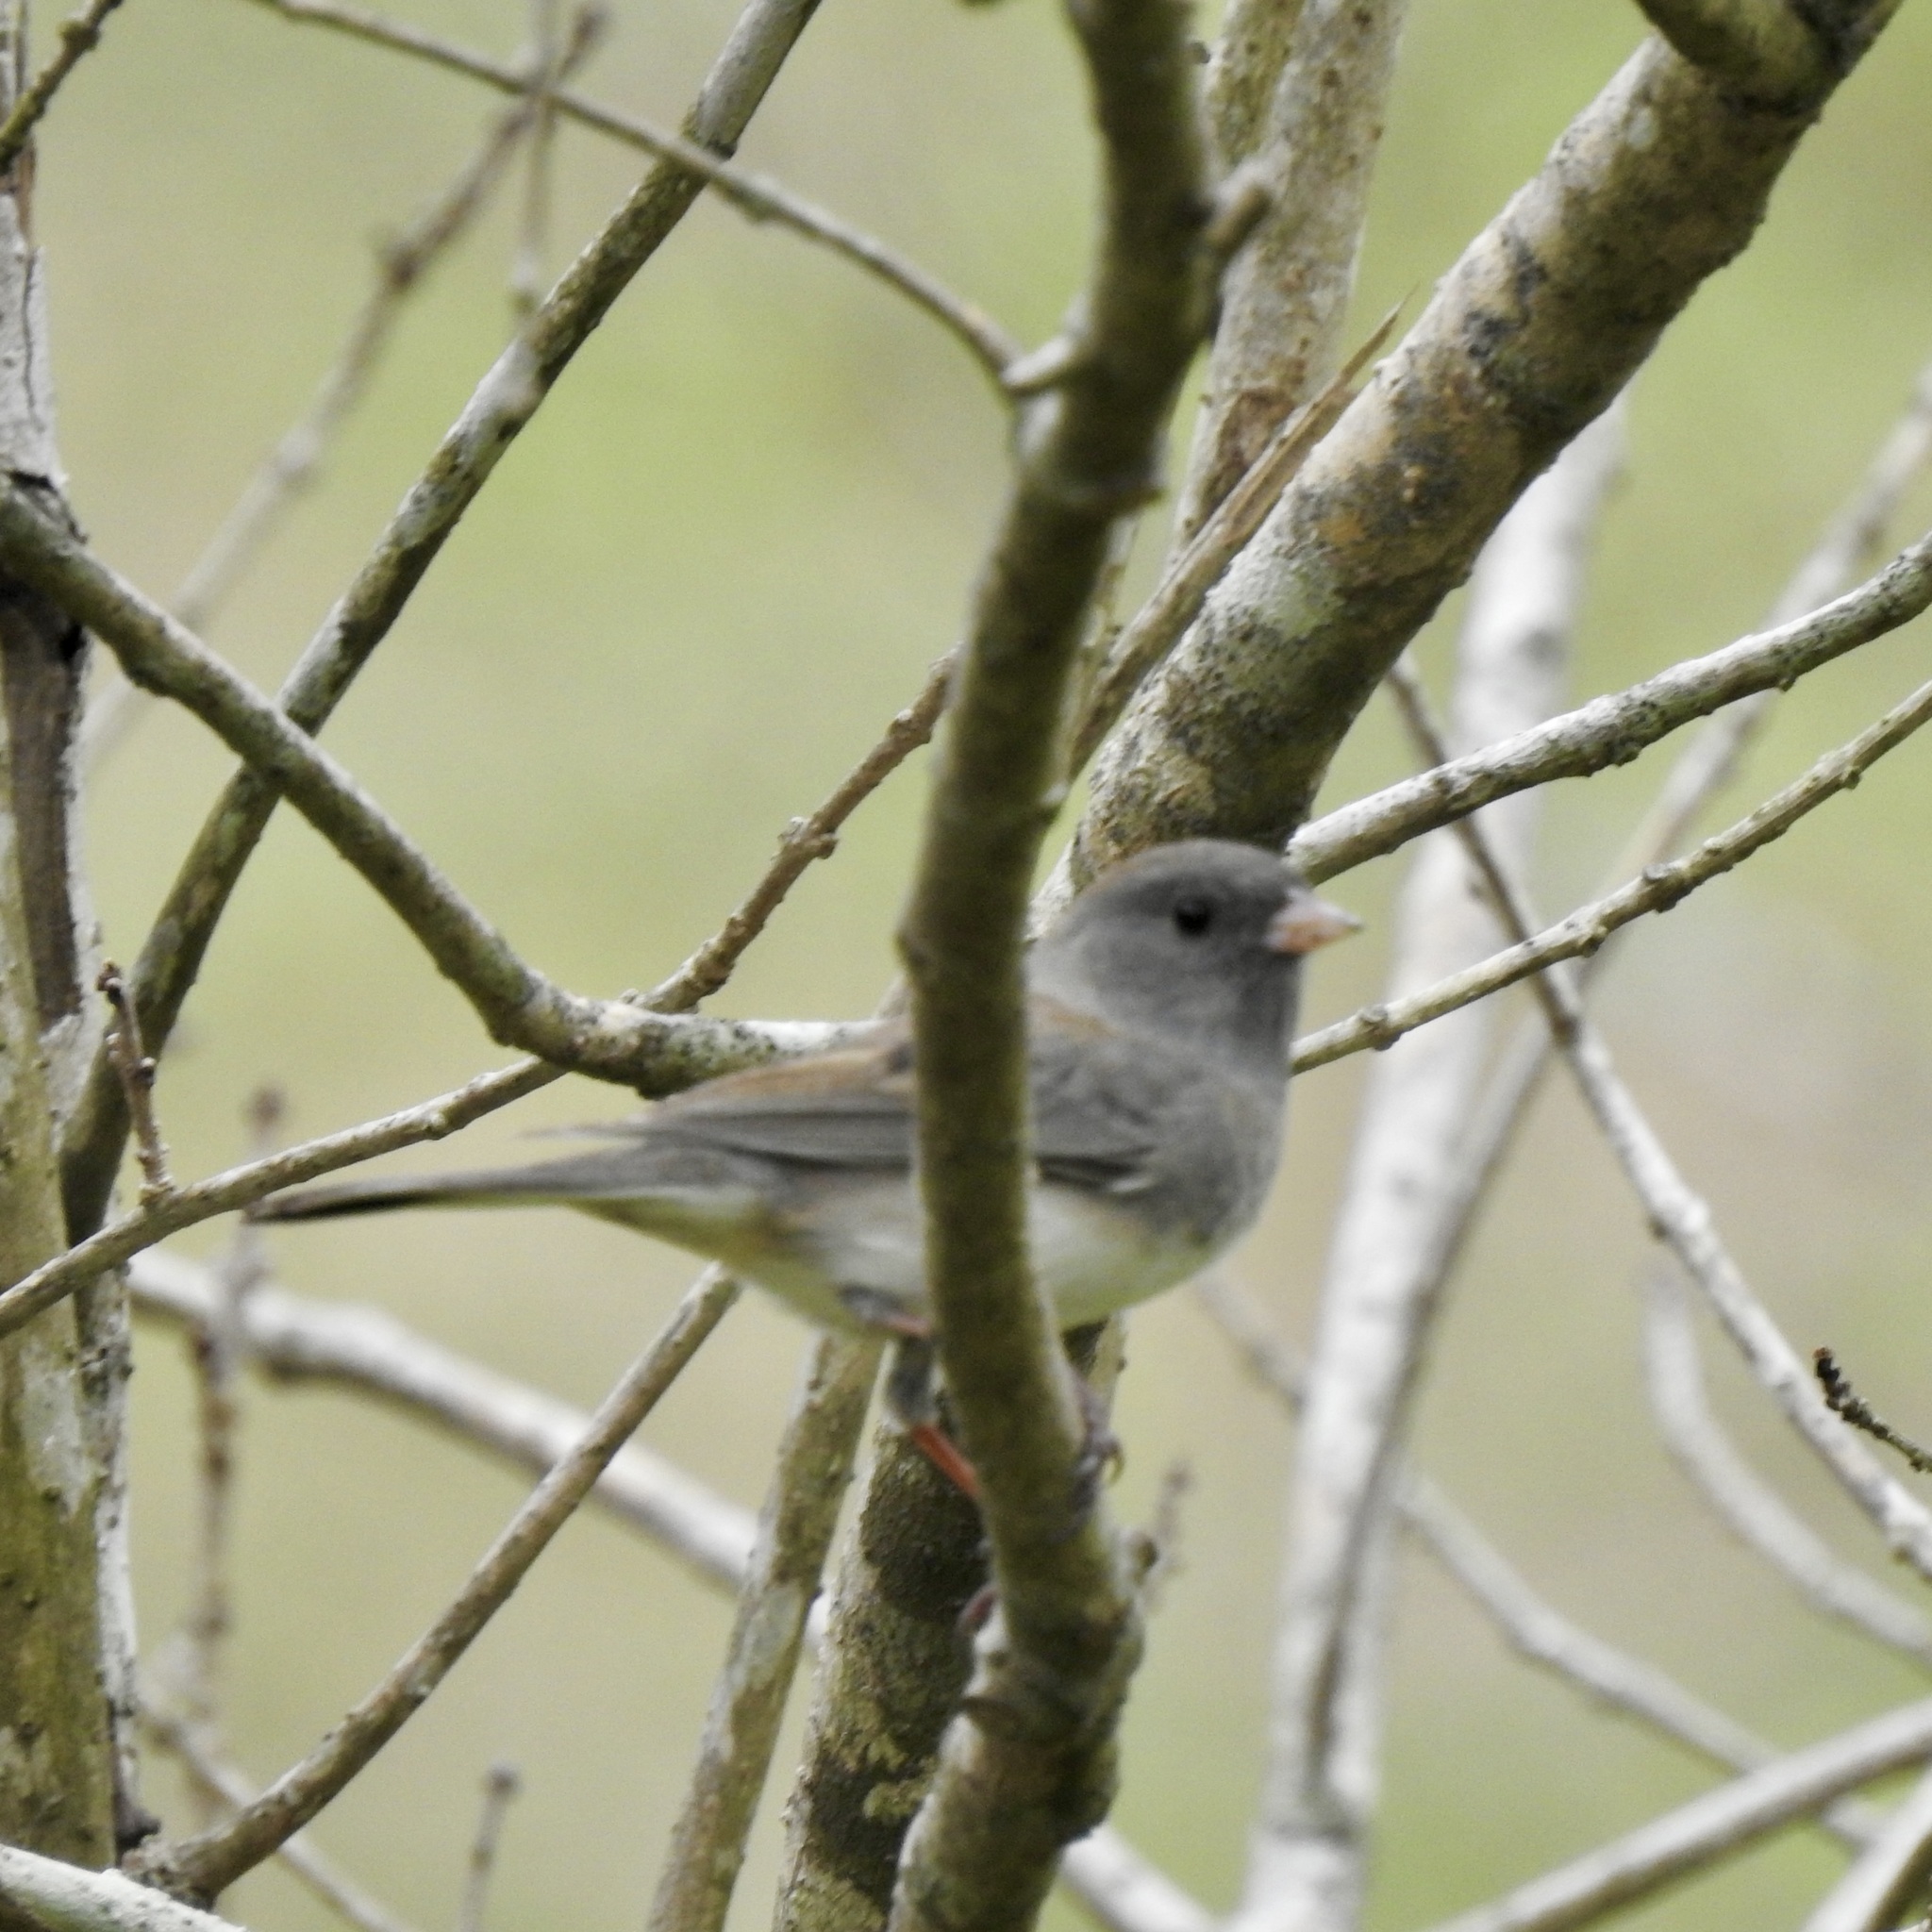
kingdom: Animalia
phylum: Chordata
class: Aves
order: Passeriformes
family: Passerellidae
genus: Junco
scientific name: Junco hyemalis
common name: Dark-eyed junco
